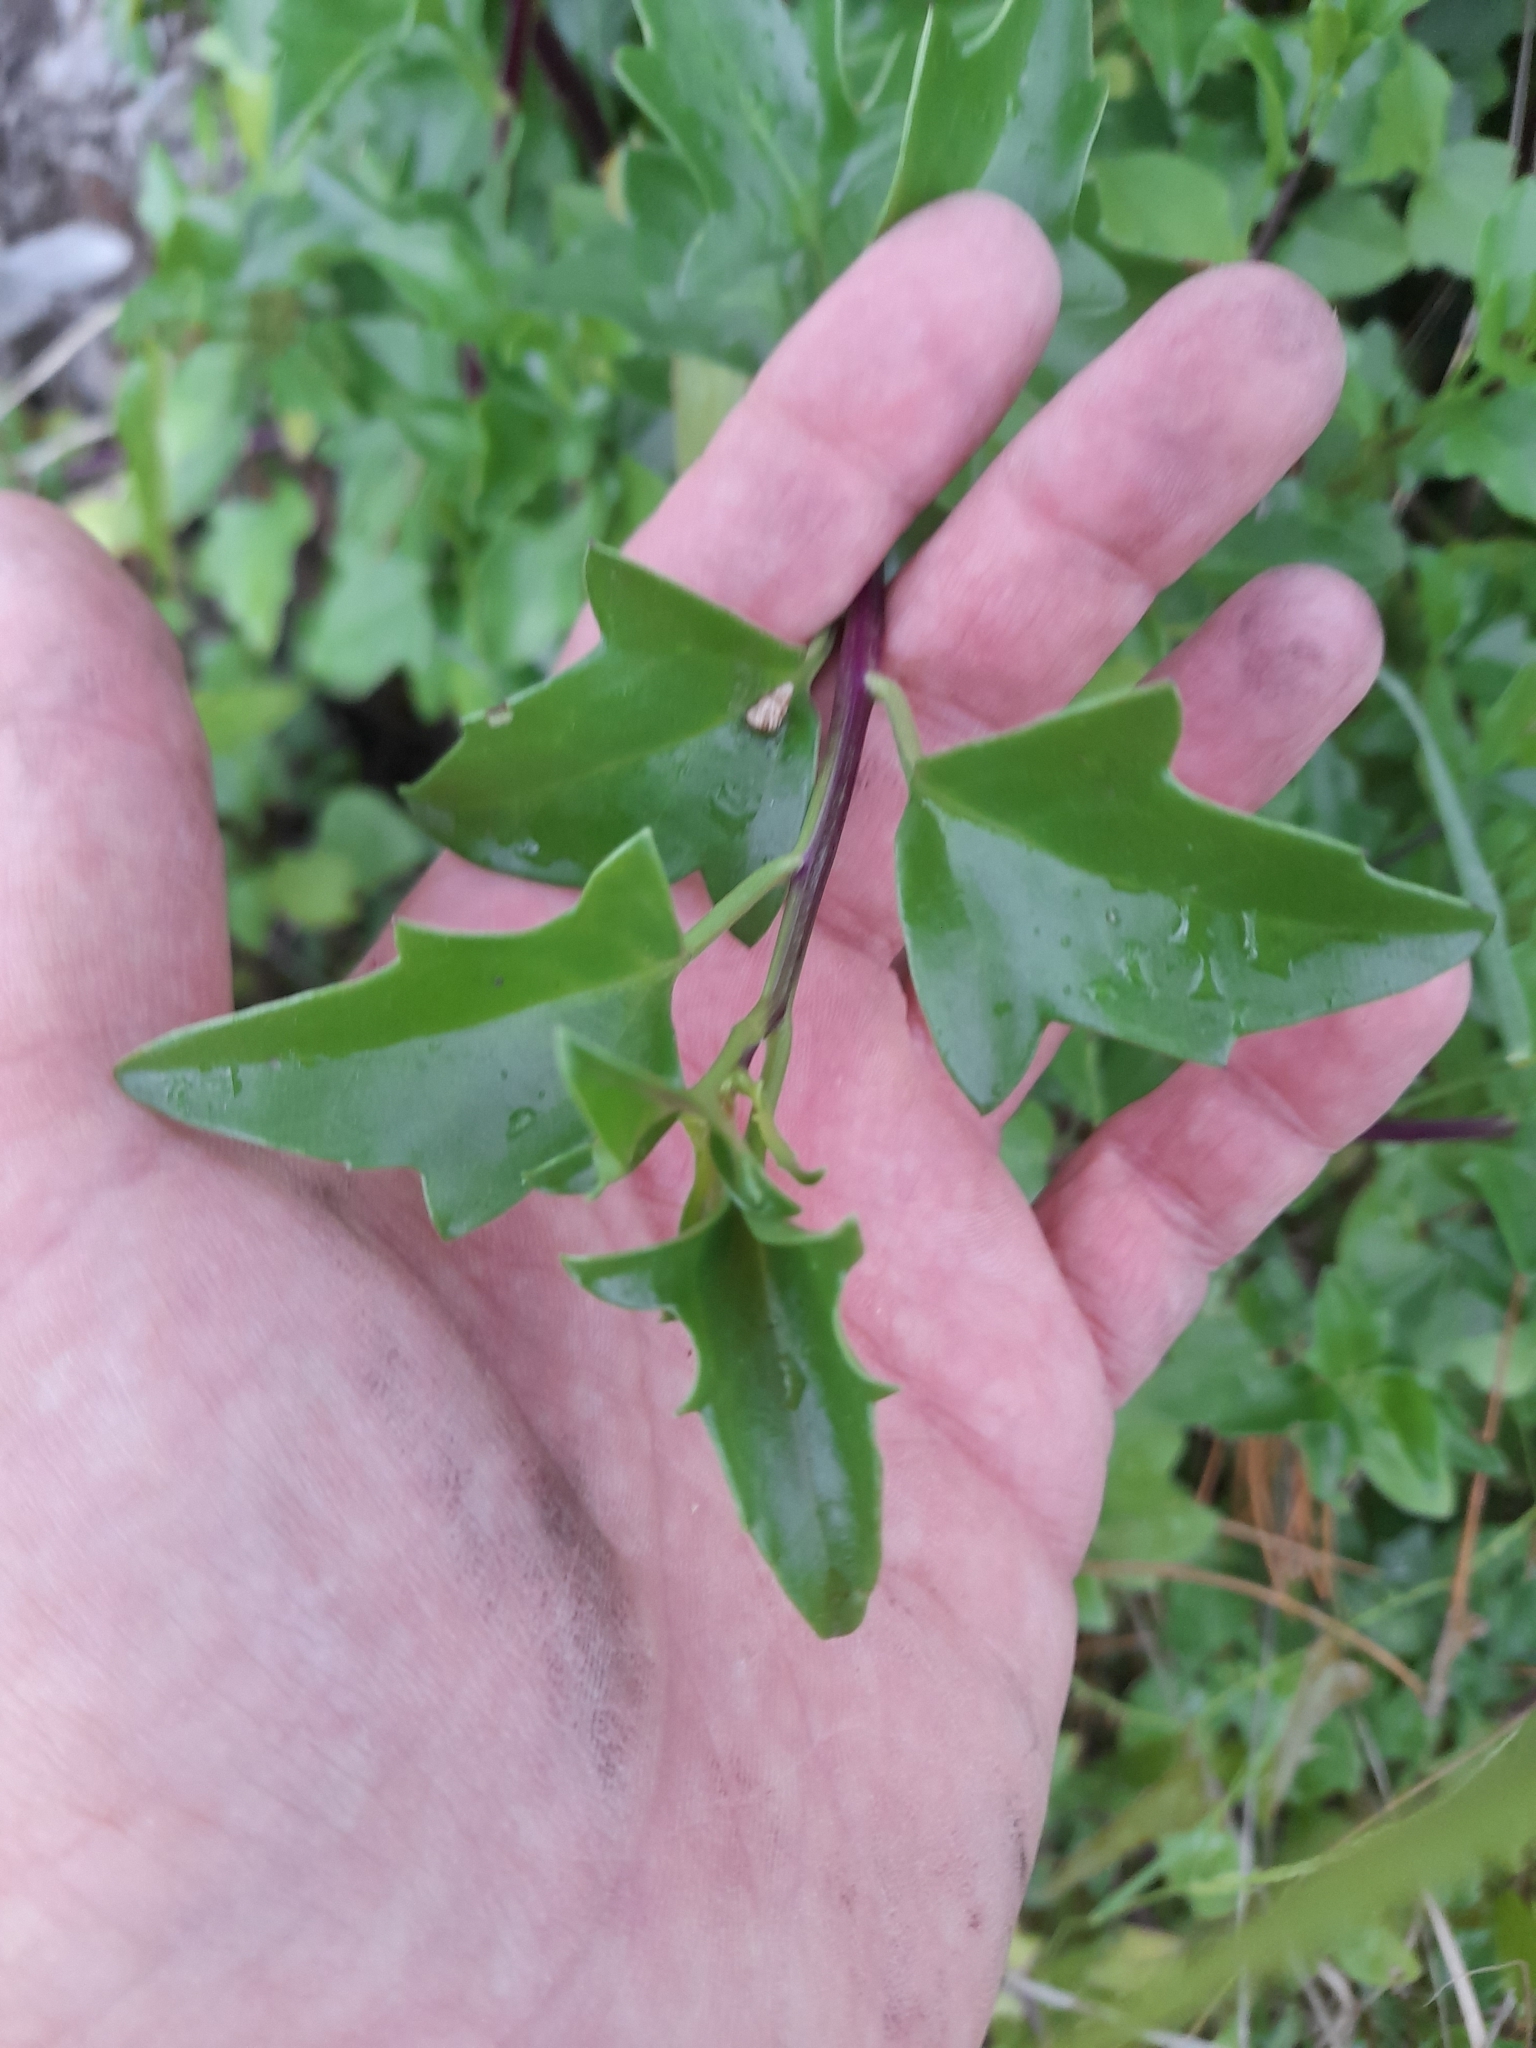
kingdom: Plantae
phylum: Tracheophyta
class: Magnoliopsida
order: Asterales
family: Asteraceae
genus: Senecio
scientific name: Senecio angulatus
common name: Climbing groundsel
